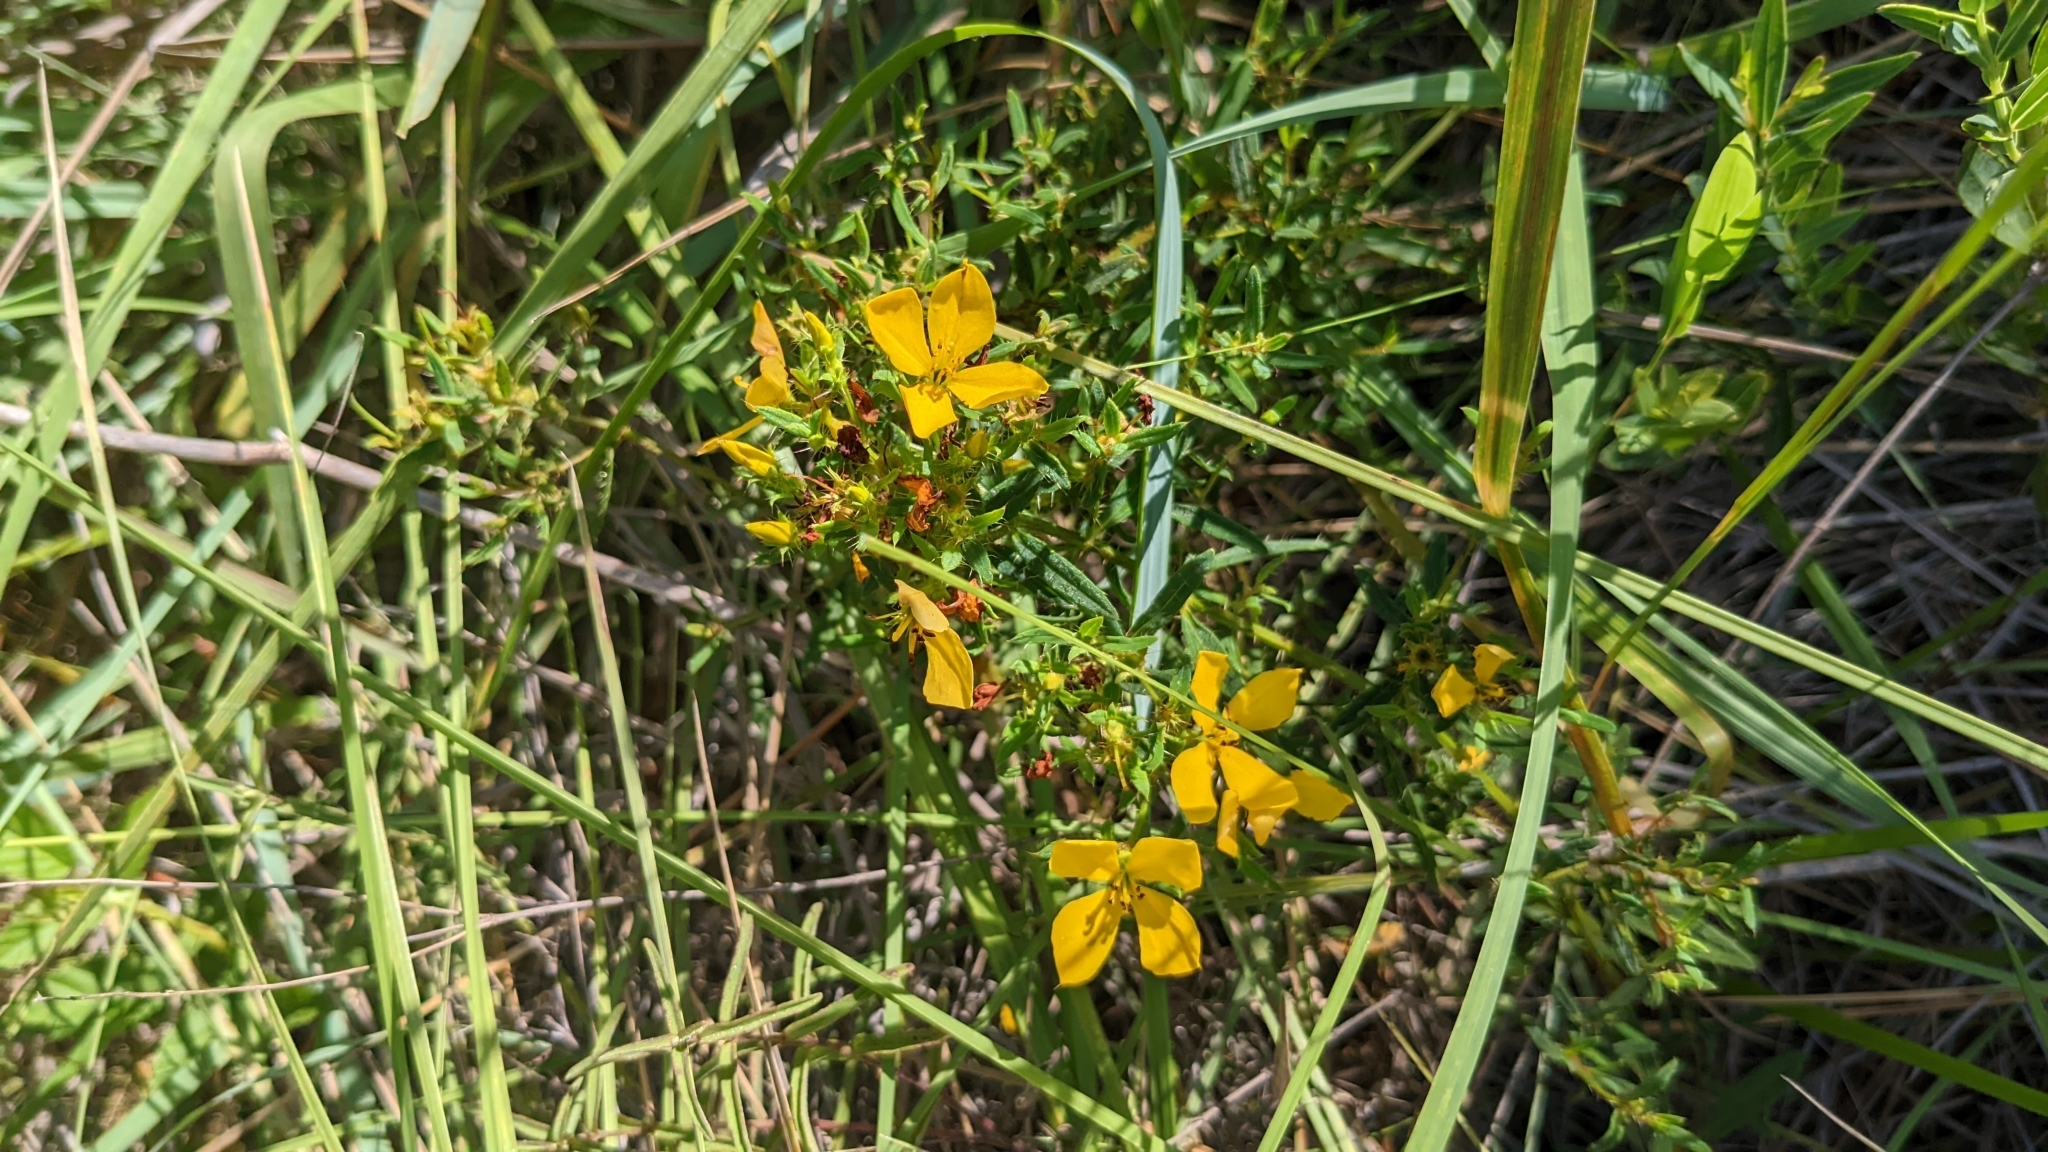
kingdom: Plantae
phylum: Tracheophyta
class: Magnoliopsida
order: Myrtales
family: Melastomataceae
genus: Rhexia
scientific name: Rhexia lutea
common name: Golden meadow-beauty
